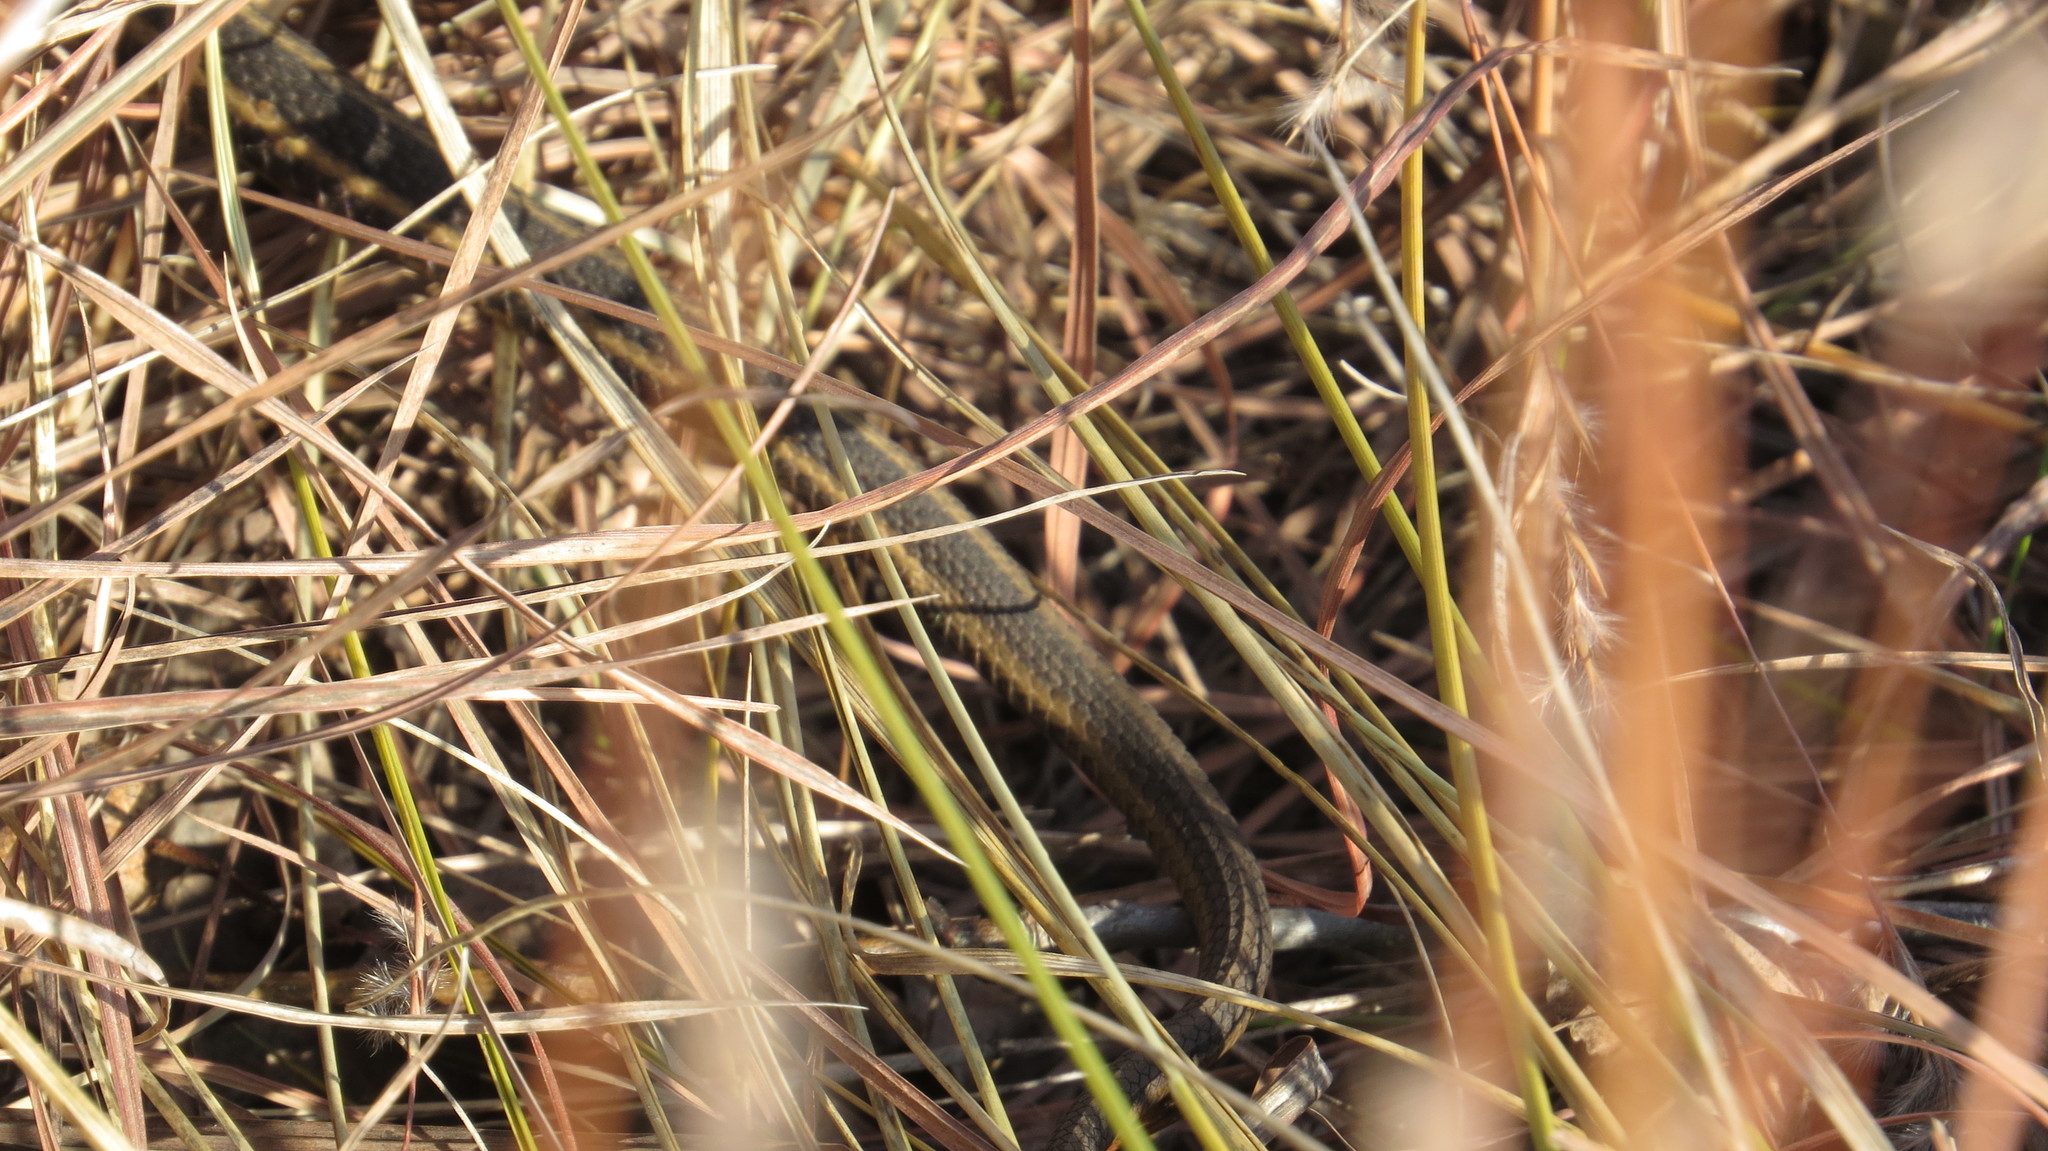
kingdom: Animalia
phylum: Chordata
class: Squamata
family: Colubridae
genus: Thamnophis
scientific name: Thamnophis sirtalis
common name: Common garter snake
